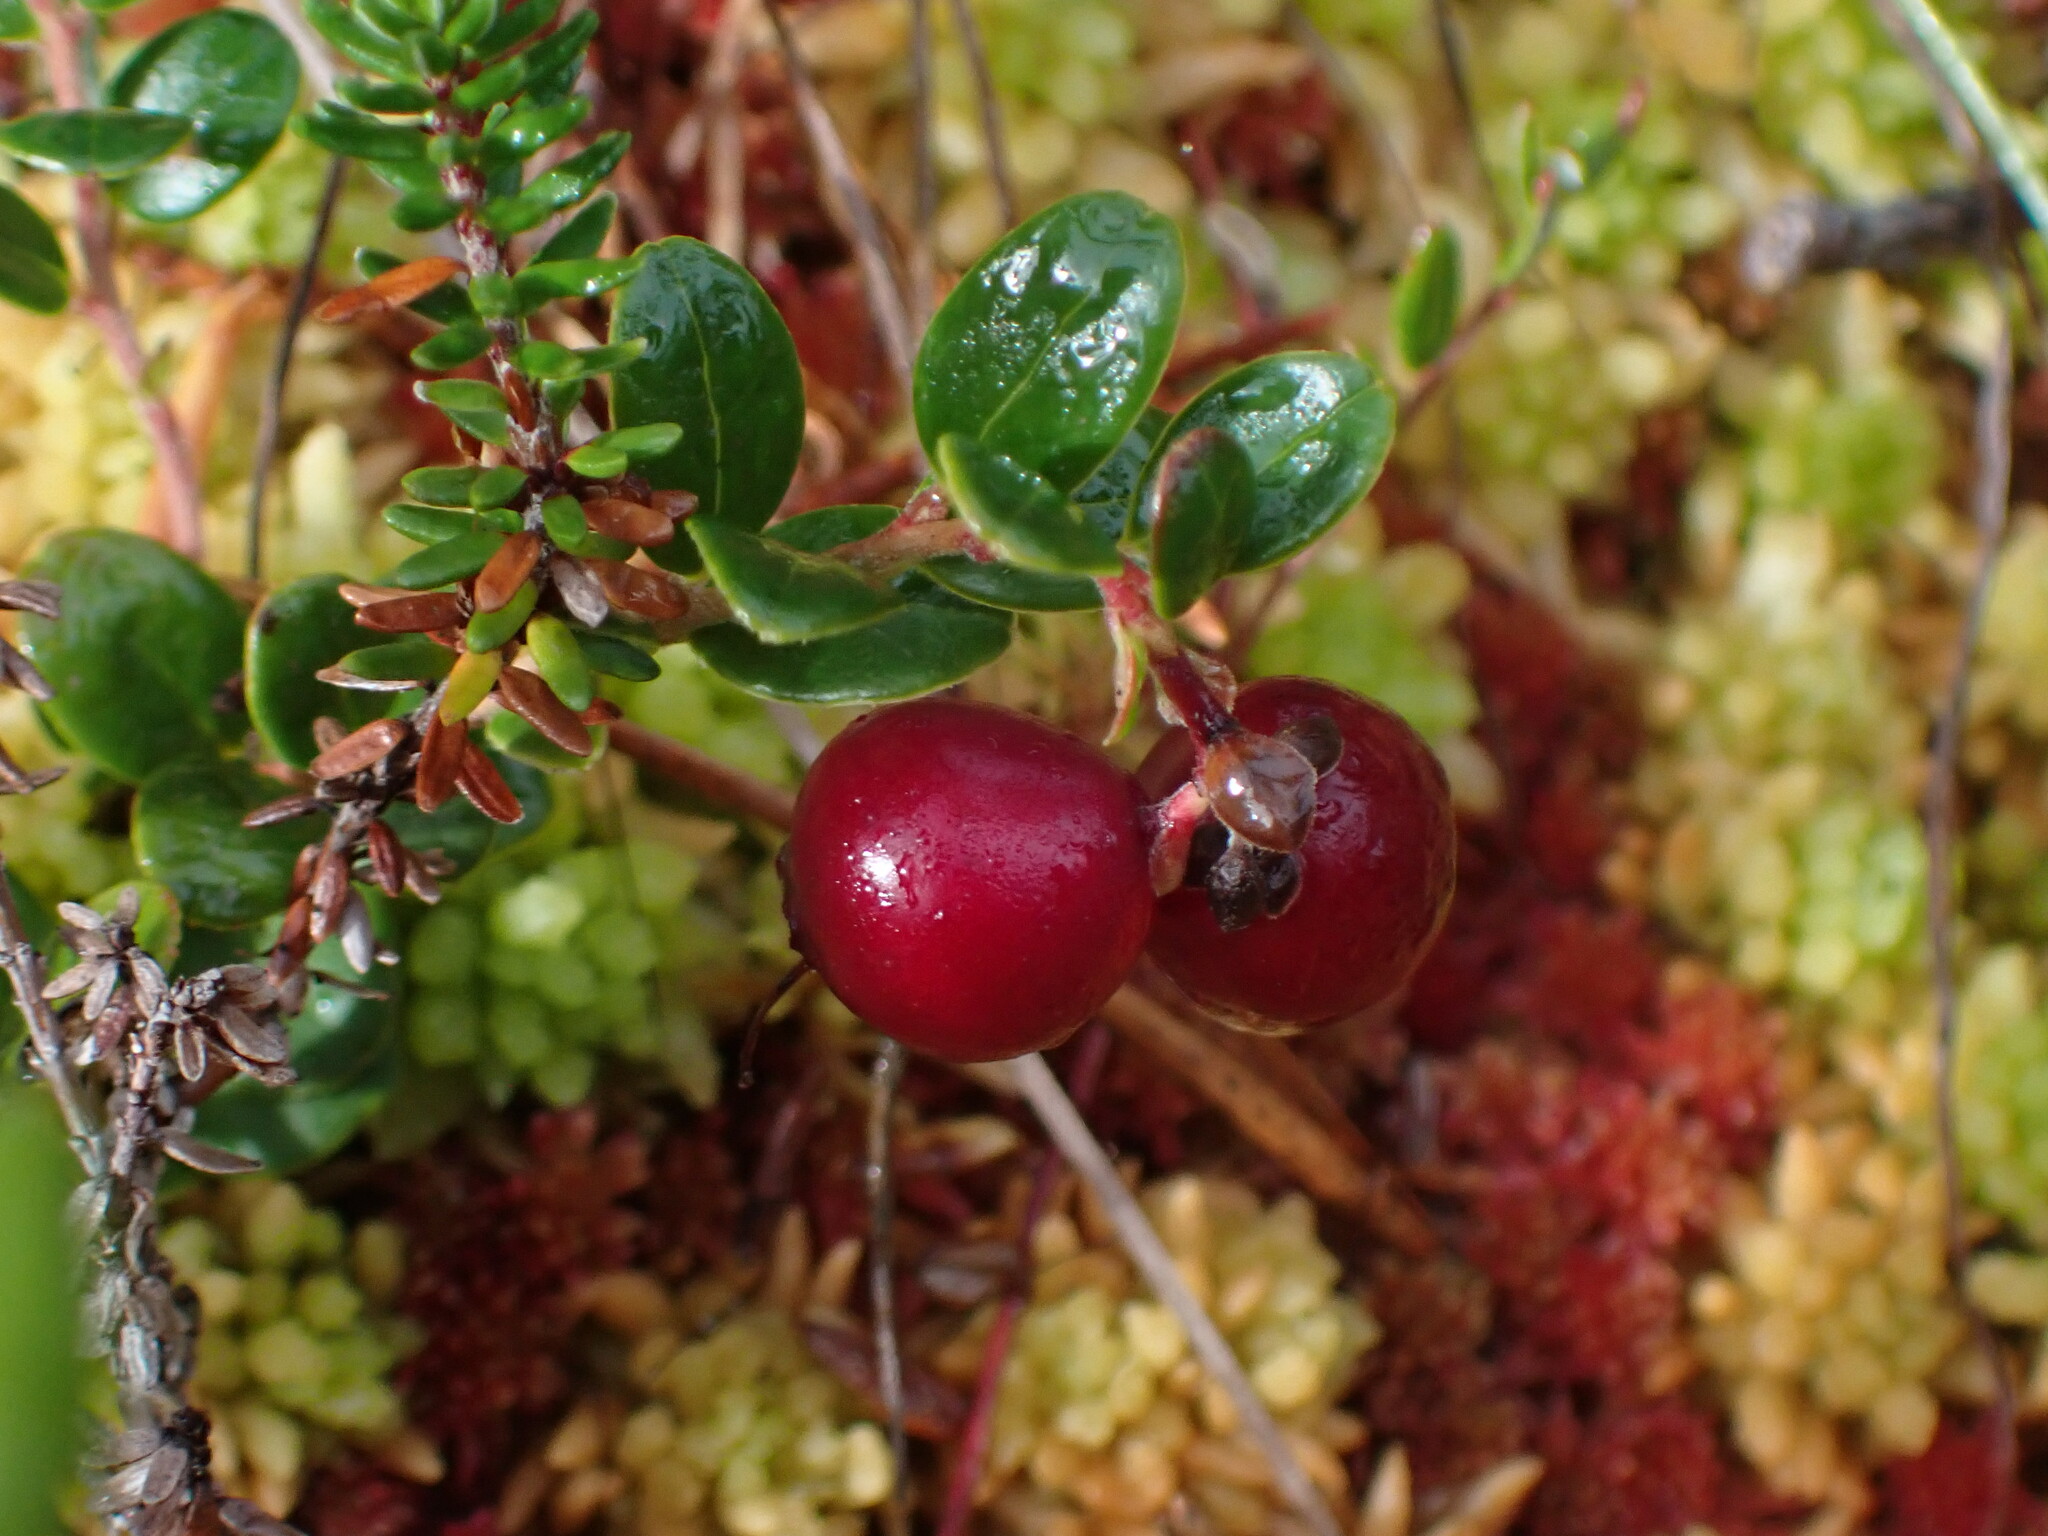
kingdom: Plantae
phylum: Tracheophyta
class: Magnoliopsida
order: Ericales
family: Ericaceae
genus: Vaccinium
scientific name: Vaccinium vitis-idaea
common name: Cowberry
